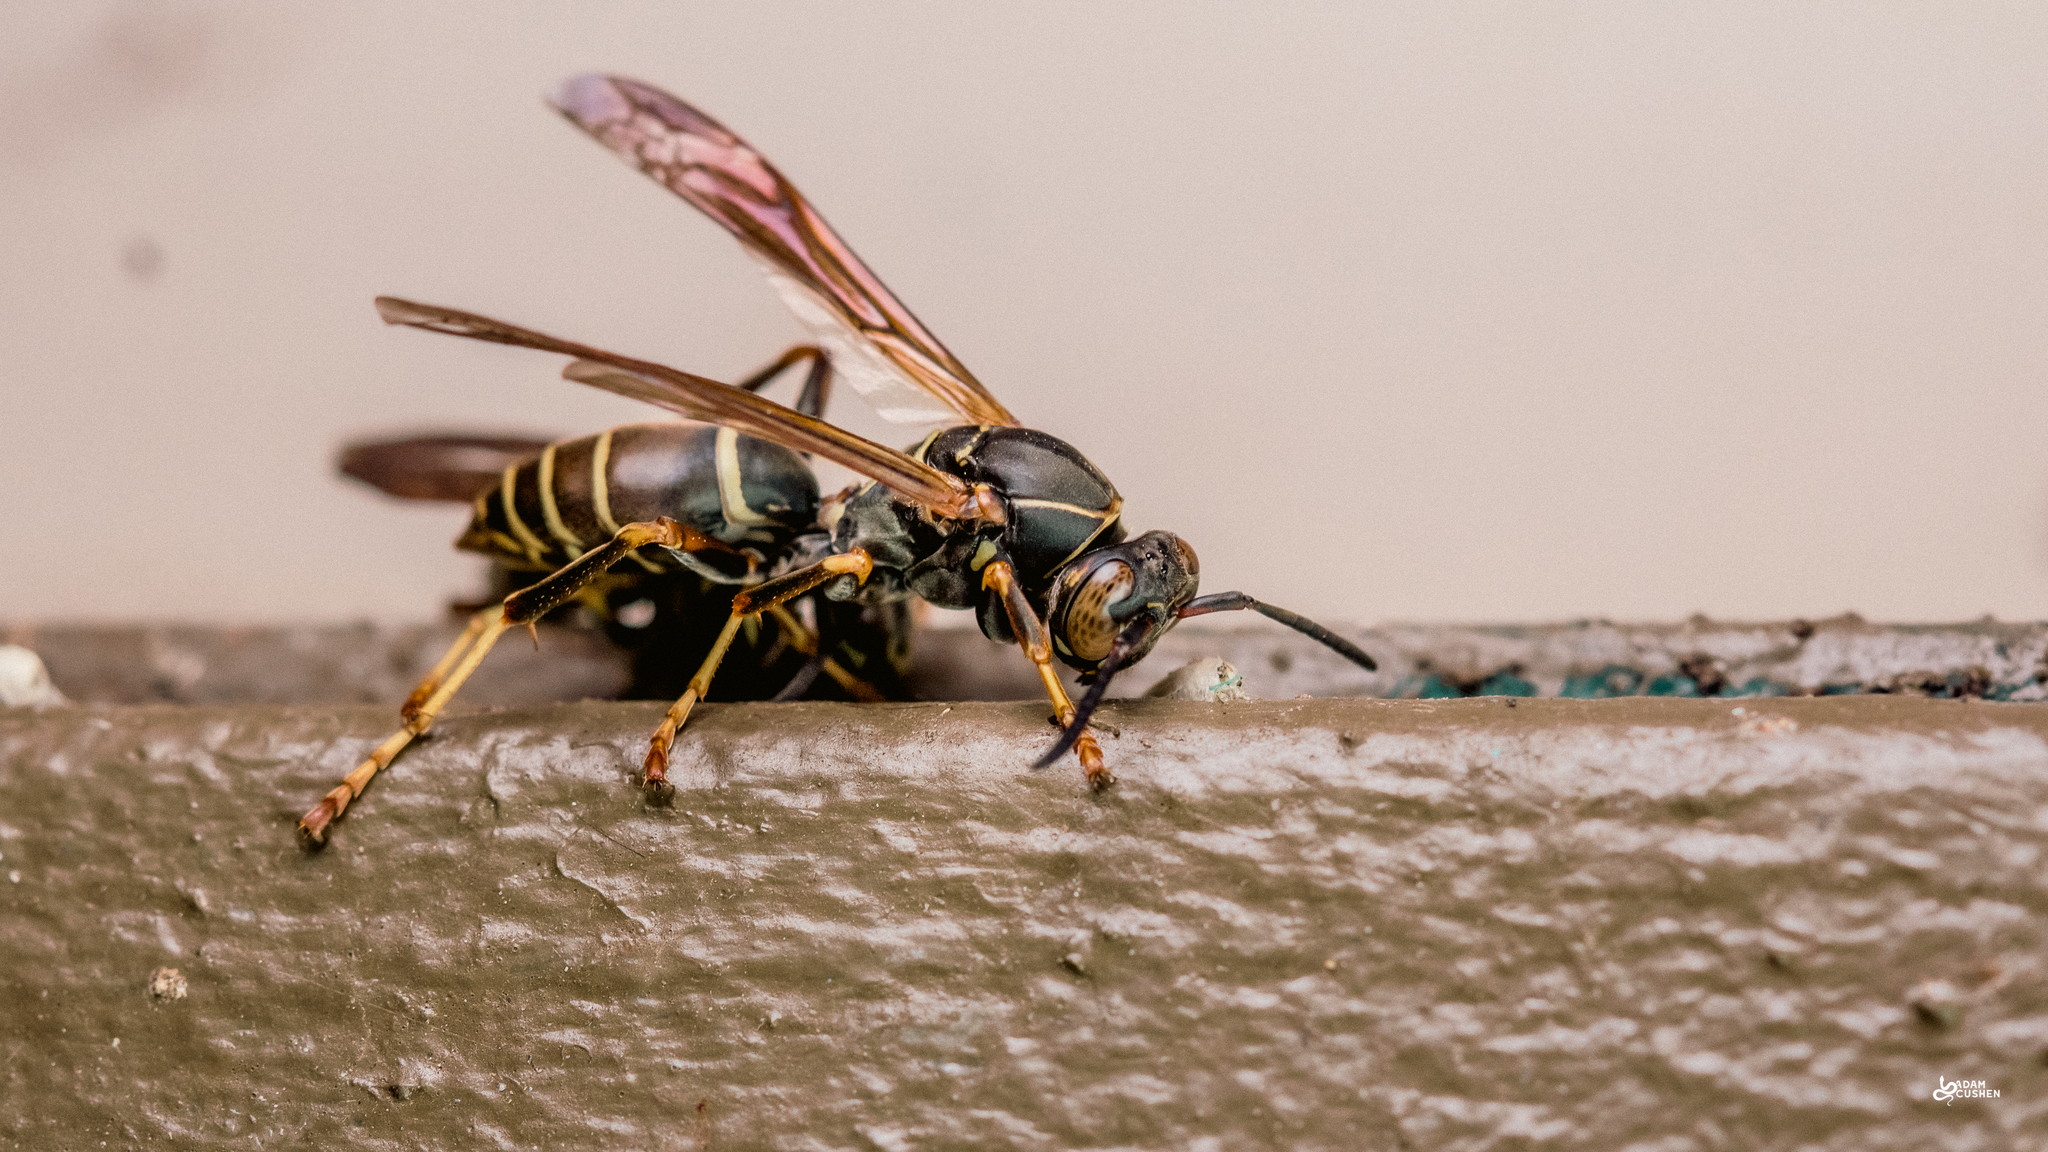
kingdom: Animalia
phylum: Arthropoda
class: Insecta
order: Hymenoptera
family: Eumenidae
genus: Polistes
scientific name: Polistes fuscatus
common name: Dark paper wasp
